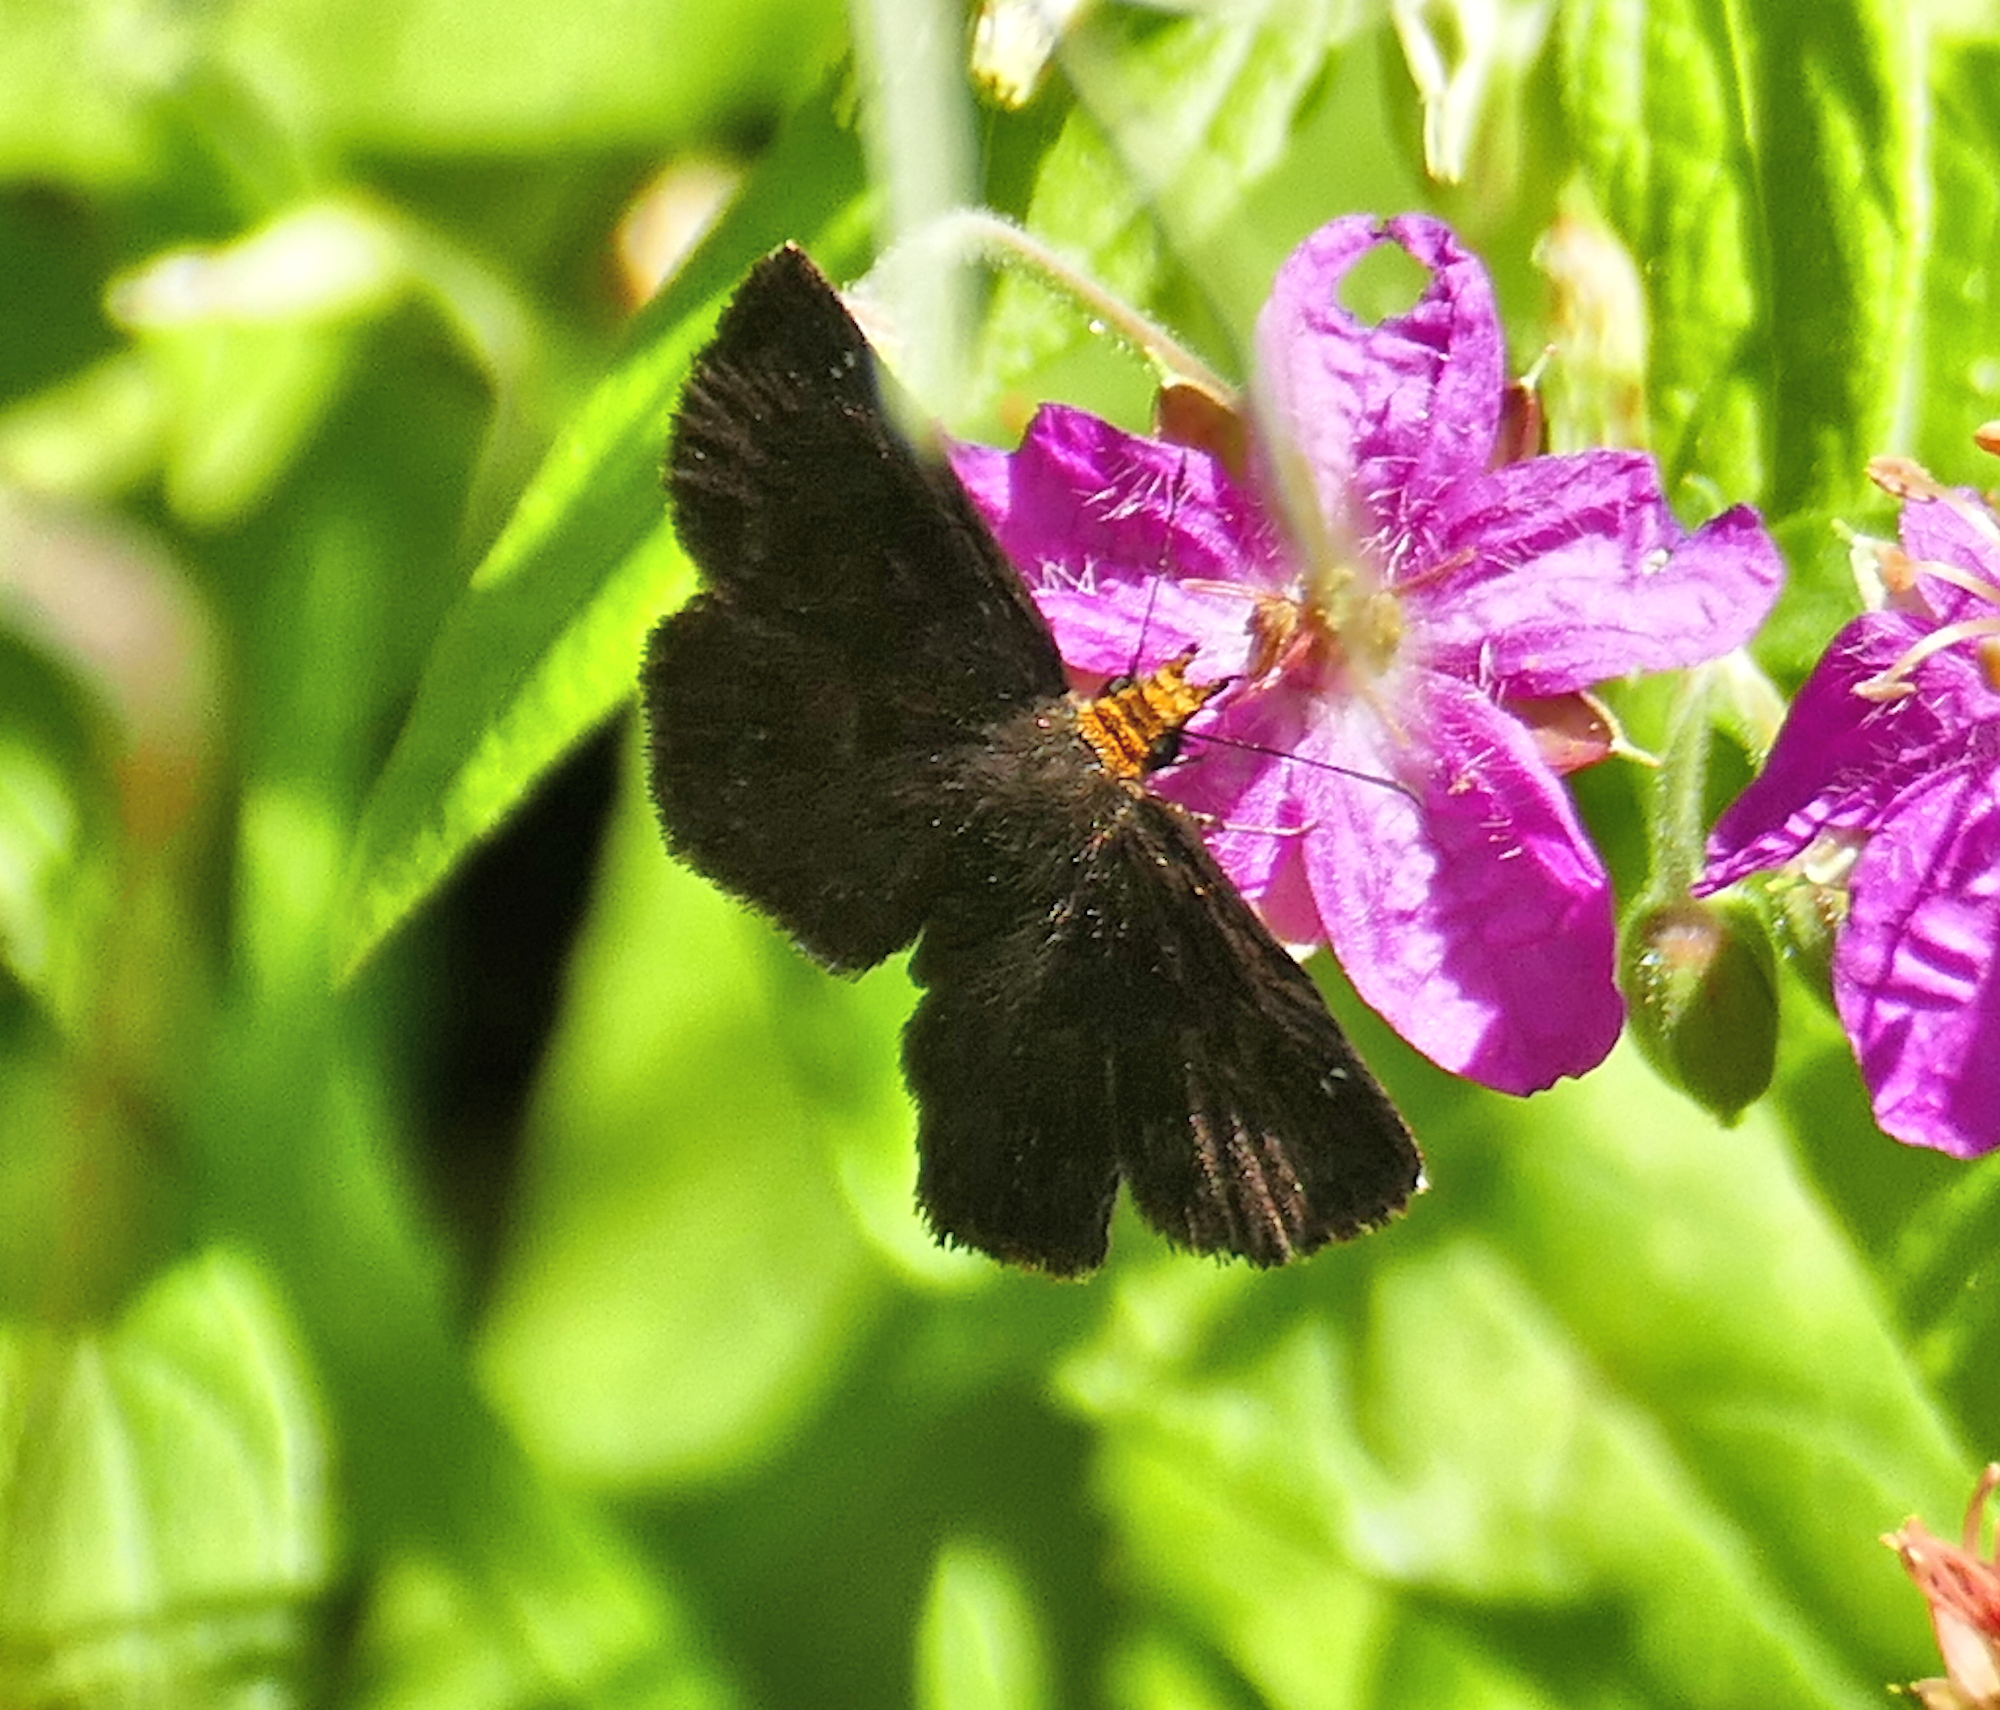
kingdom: Animalia
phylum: Arthropoda
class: Insecta
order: Lepidoptera
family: Hesperiidae
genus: Staphylus
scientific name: Staphylus ceos
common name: Golden-headed scallopwing
